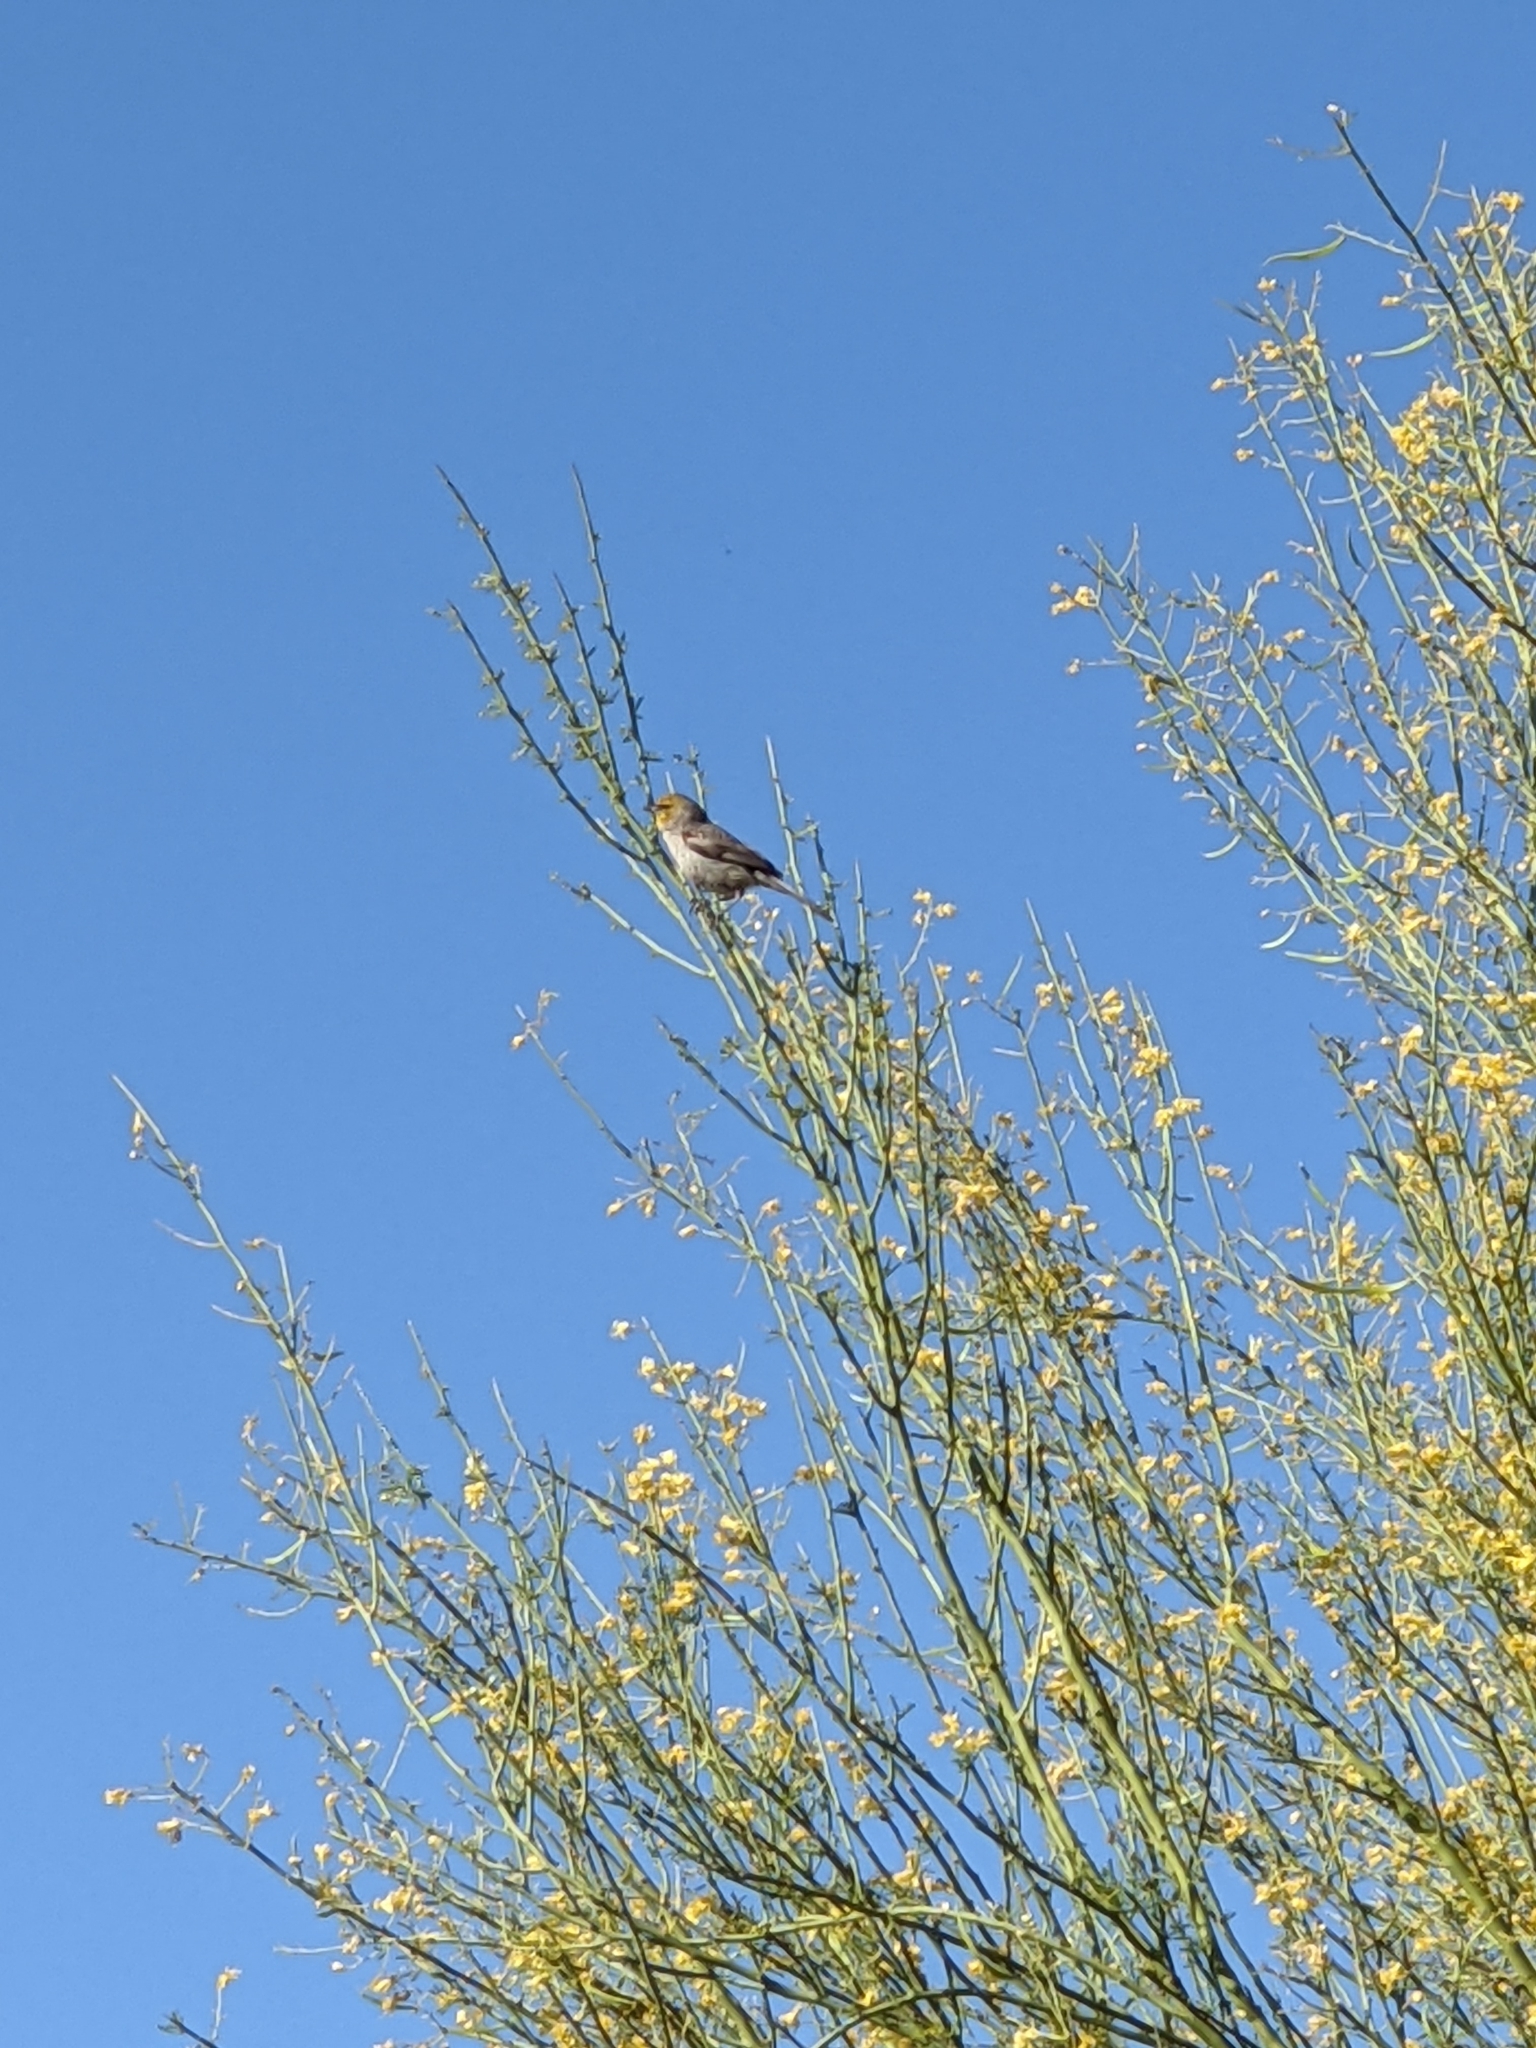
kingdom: Animalia
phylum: Chordata
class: Aves
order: Passeriformes
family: Remizidae
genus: Auriparus
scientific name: Auriparus flaviceps
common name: Verdin
